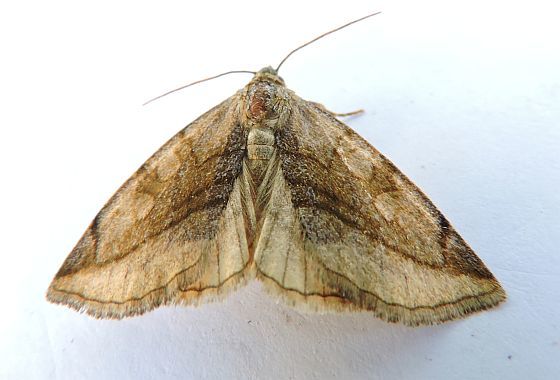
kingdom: Animalia
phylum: Arthropoda
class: Insecta
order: Lepidoptera
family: Noctuidae
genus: Plagiomimicus
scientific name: Plagiomimicus ochoa
